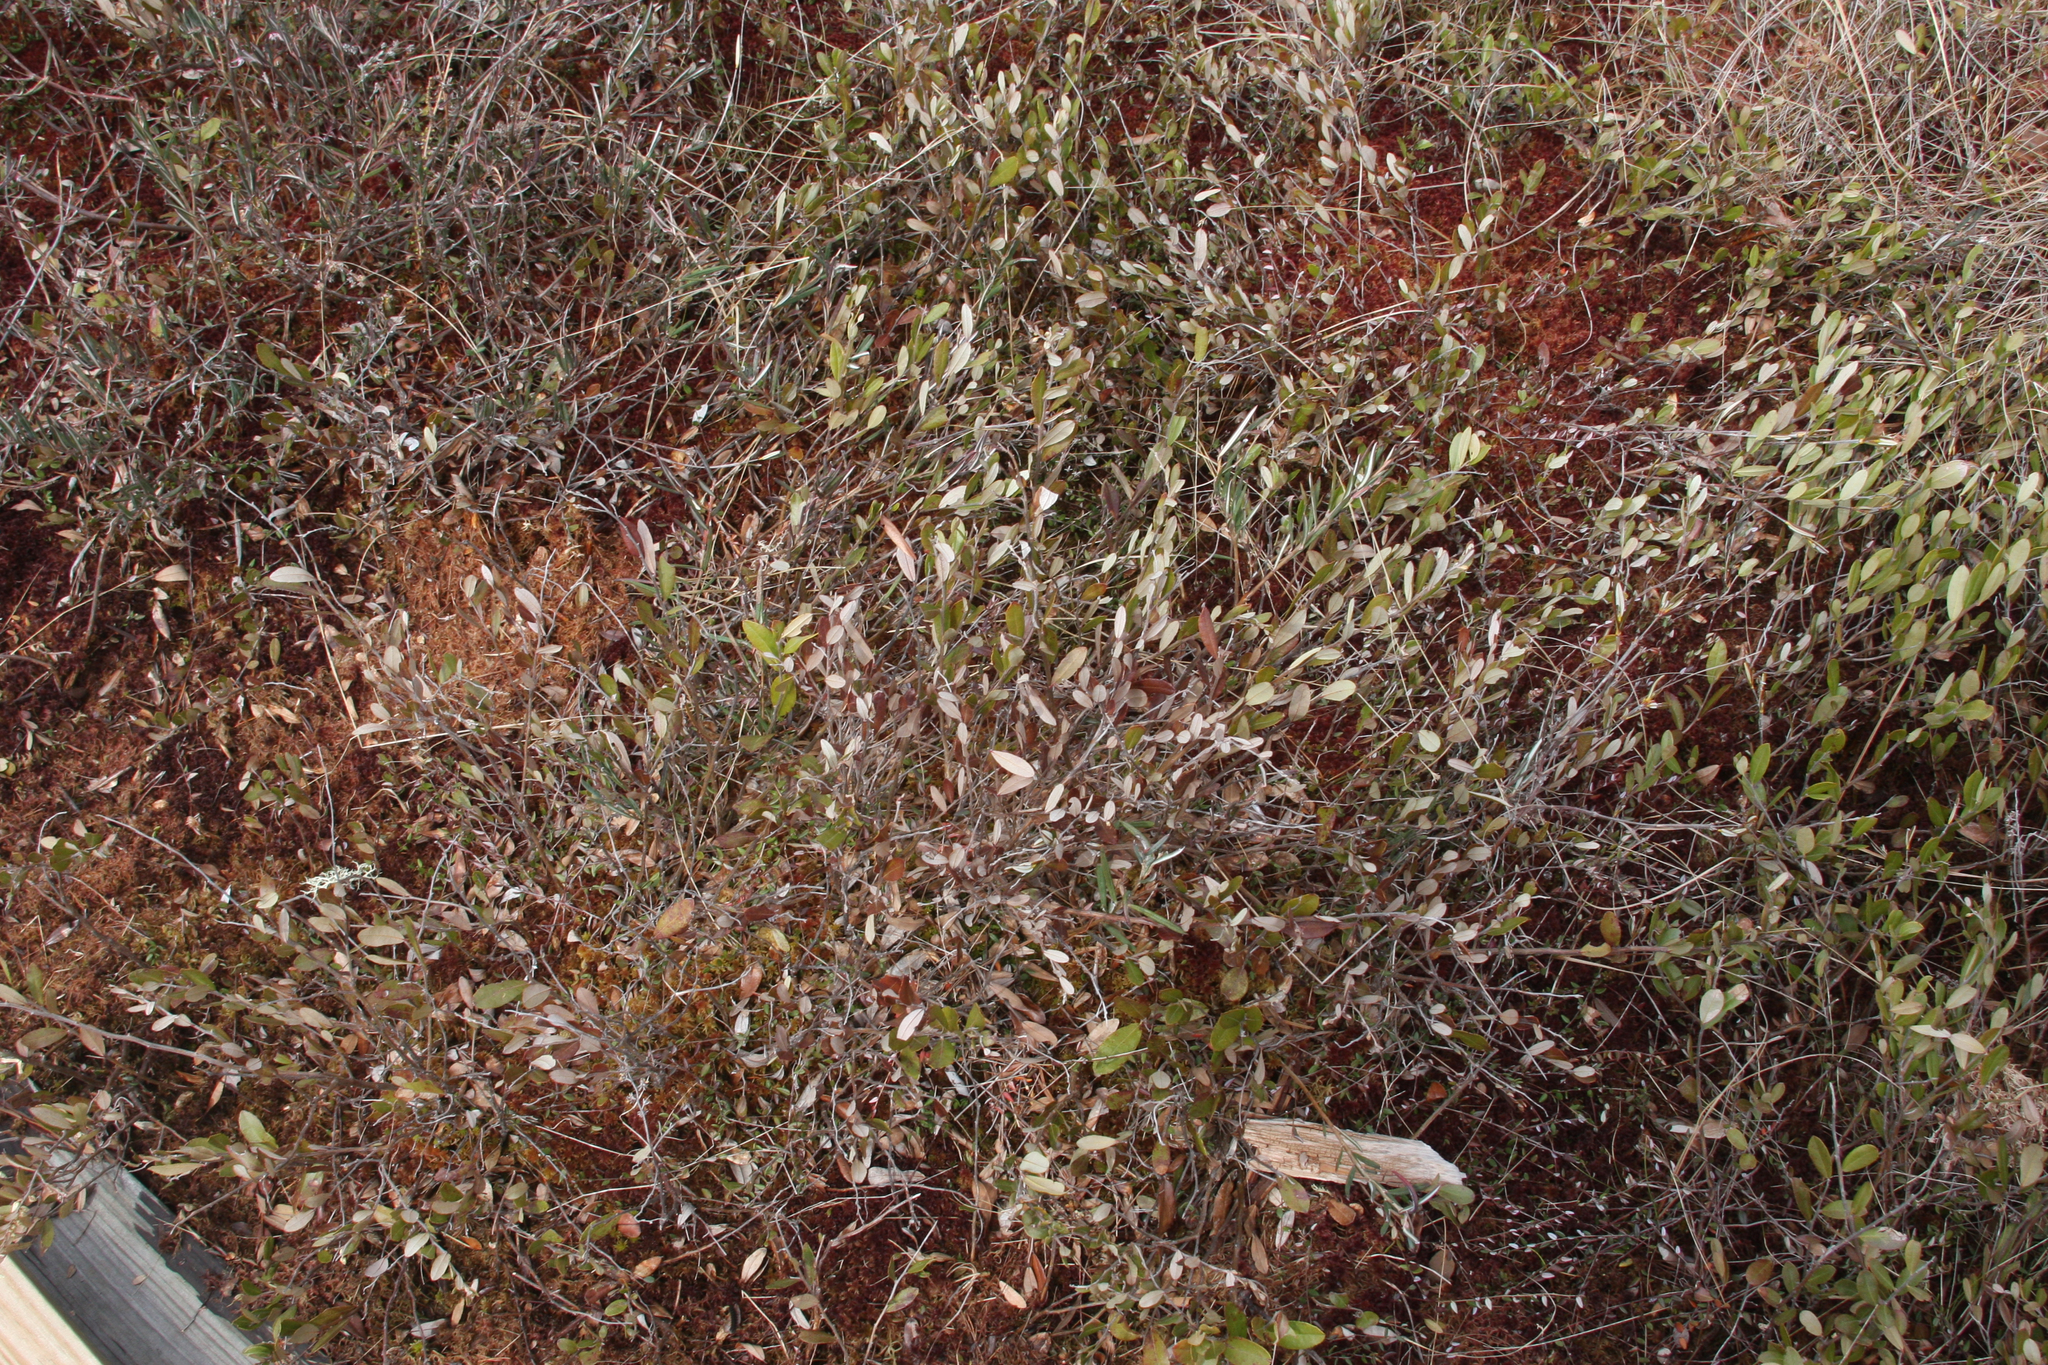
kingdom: Plantae
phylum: Tracheophyta
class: Magnoliopsida
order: Ericales
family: Ericaceae
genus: Chamaedaphne
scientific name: Chamaedaphne calyculata
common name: Leatherleaf
